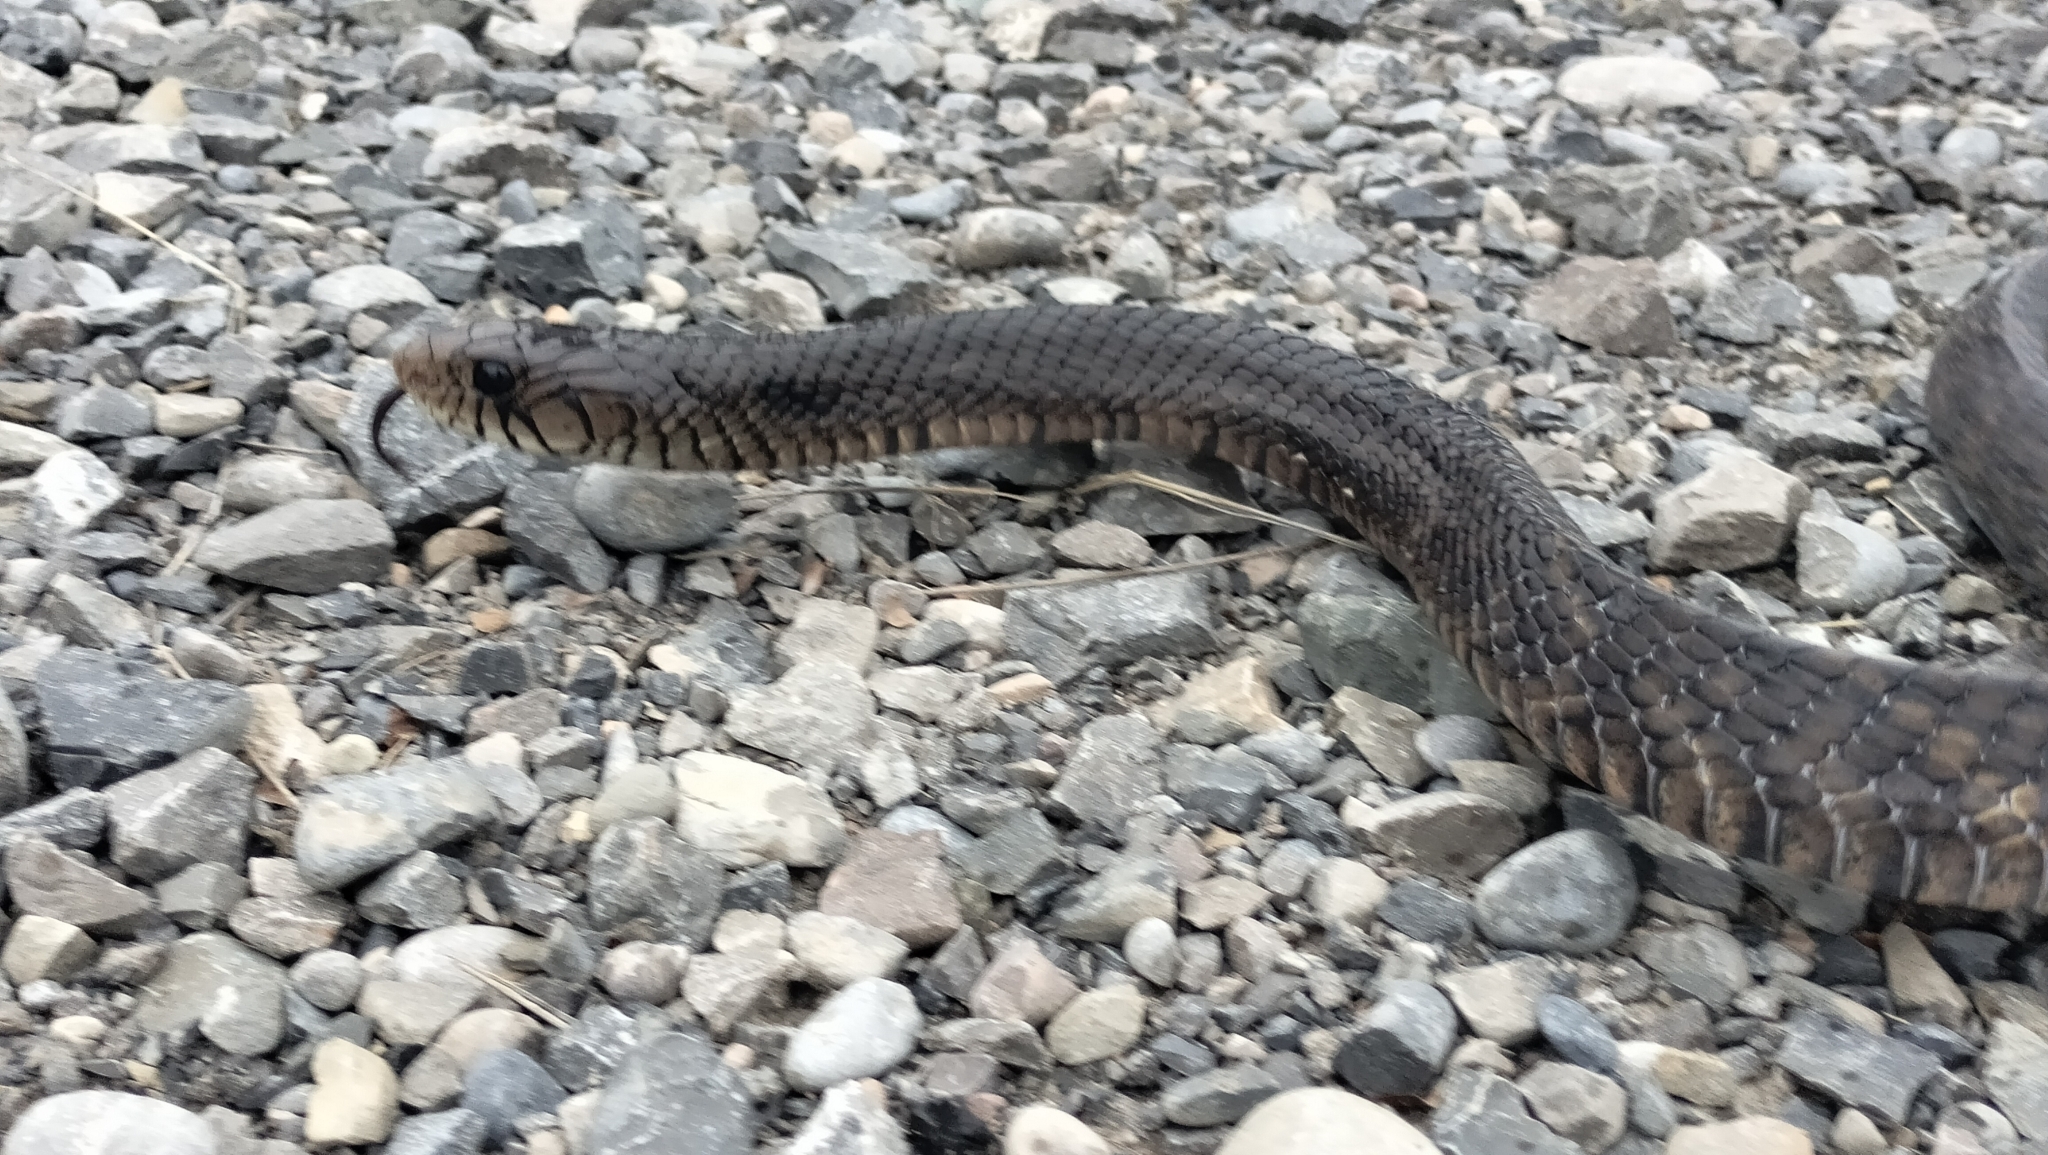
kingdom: Animalia
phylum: Chordata
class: Squamata
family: Colubridae
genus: Drymarchon
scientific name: Drymarchon melanurus
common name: Central american indigo snake
